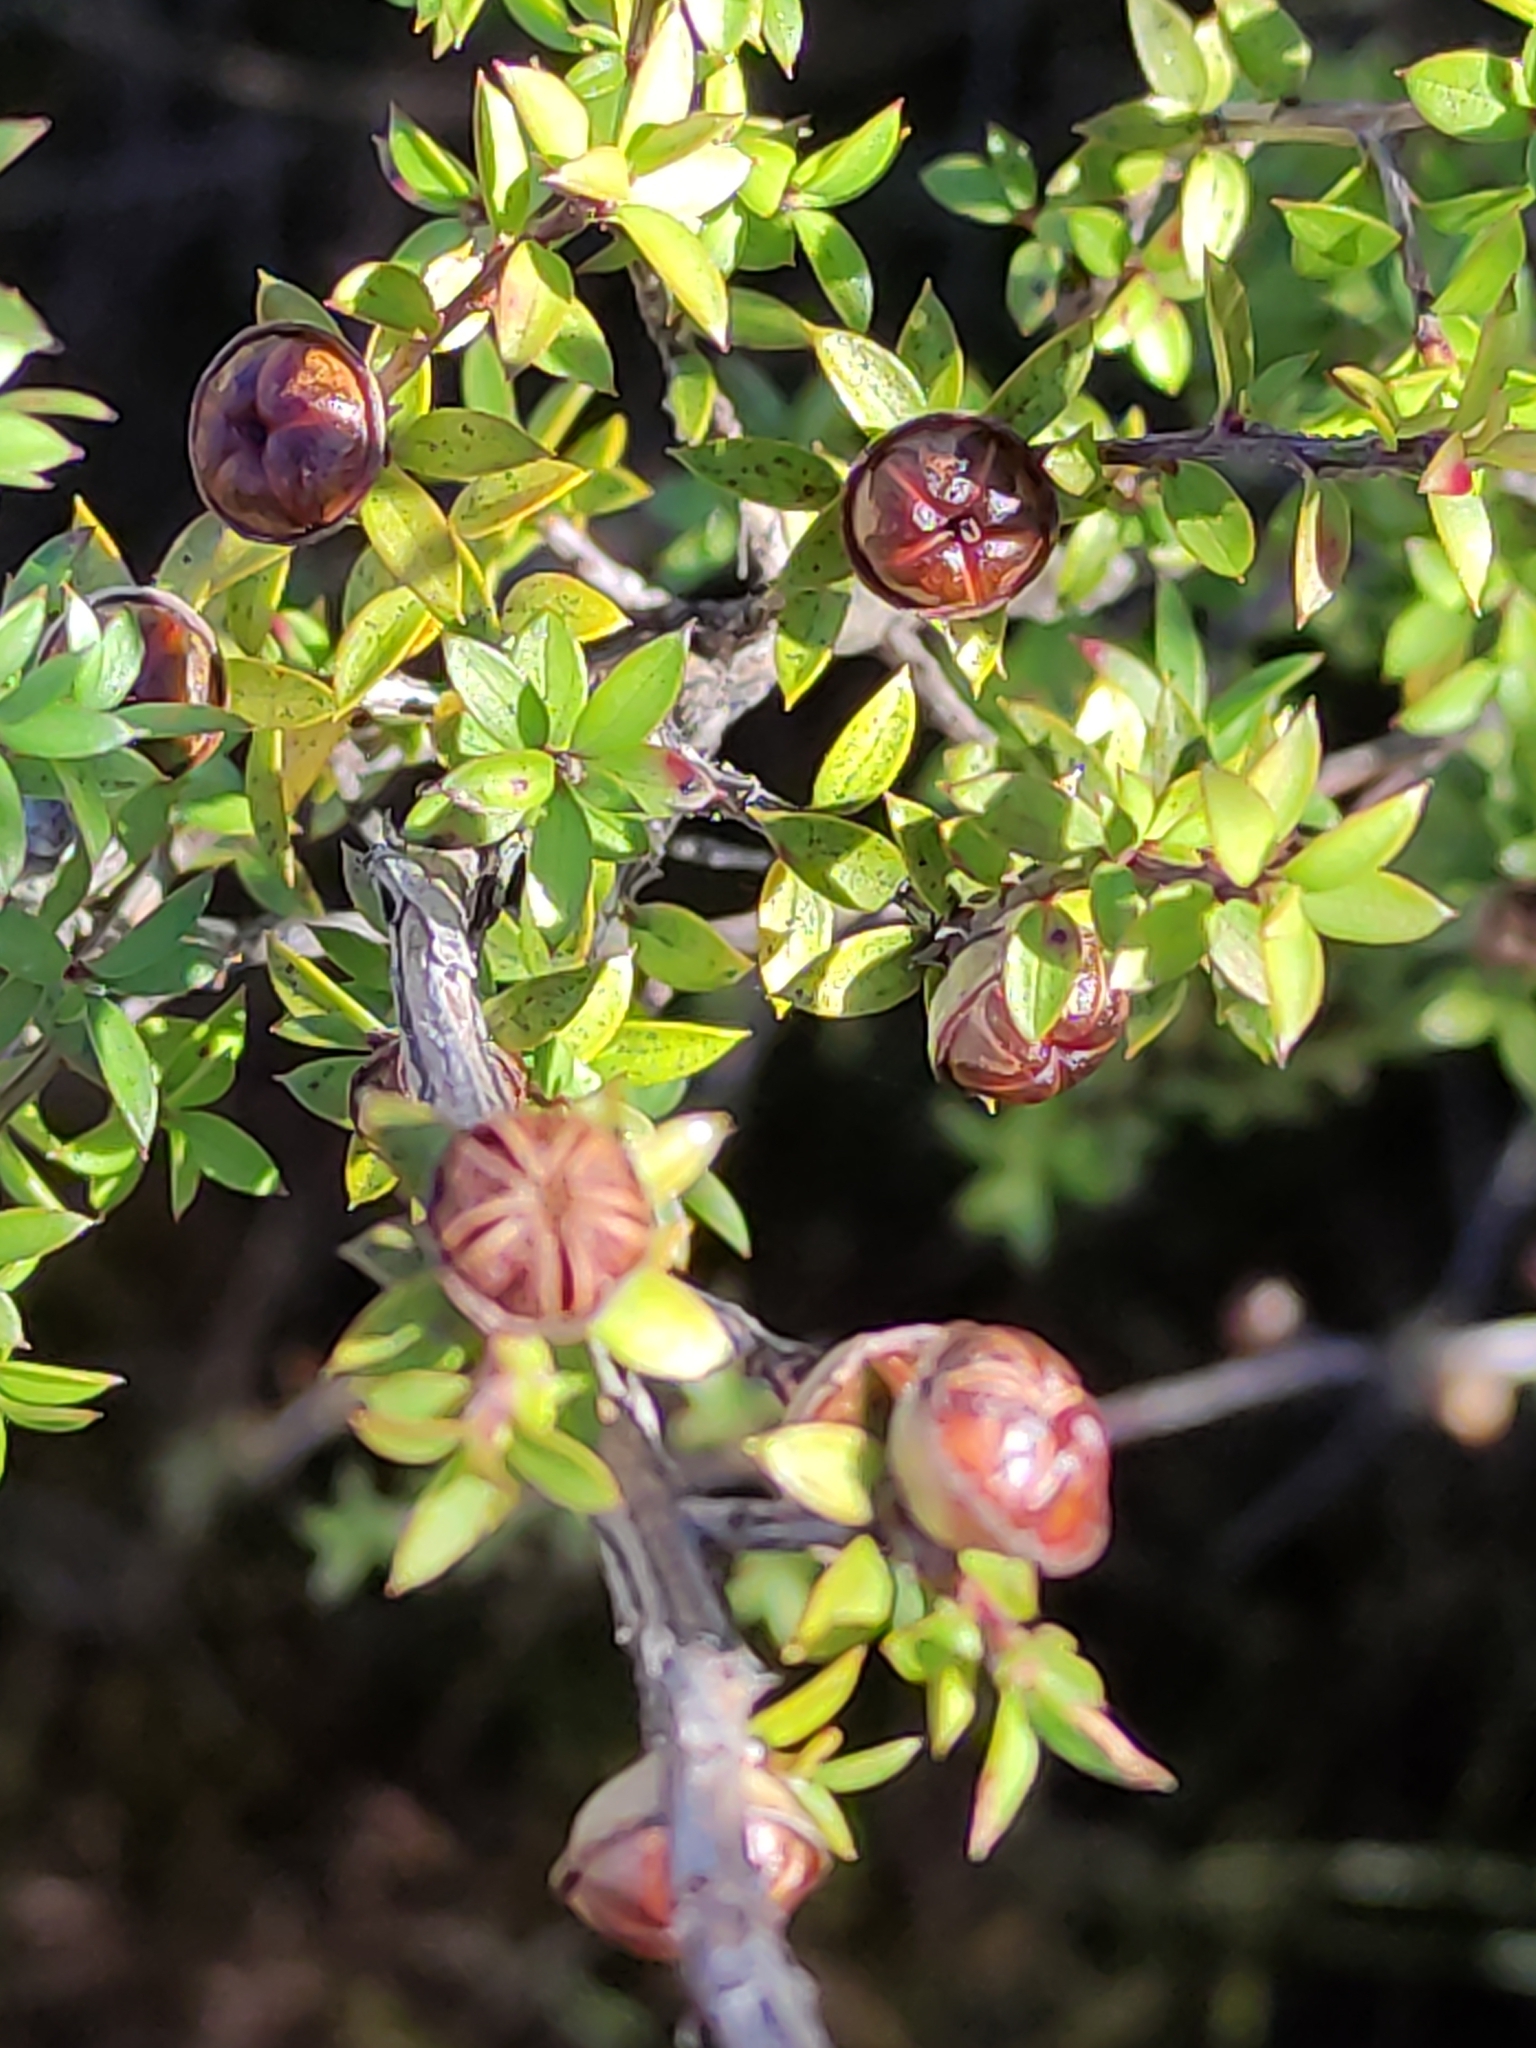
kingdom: Plantae
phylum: Tracheophyta
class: Magnoliopsida
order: Myrtales
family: Myrtaceae
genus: Leptospermum
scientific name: Leptospermum scoparium
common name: Broom tea-tree
